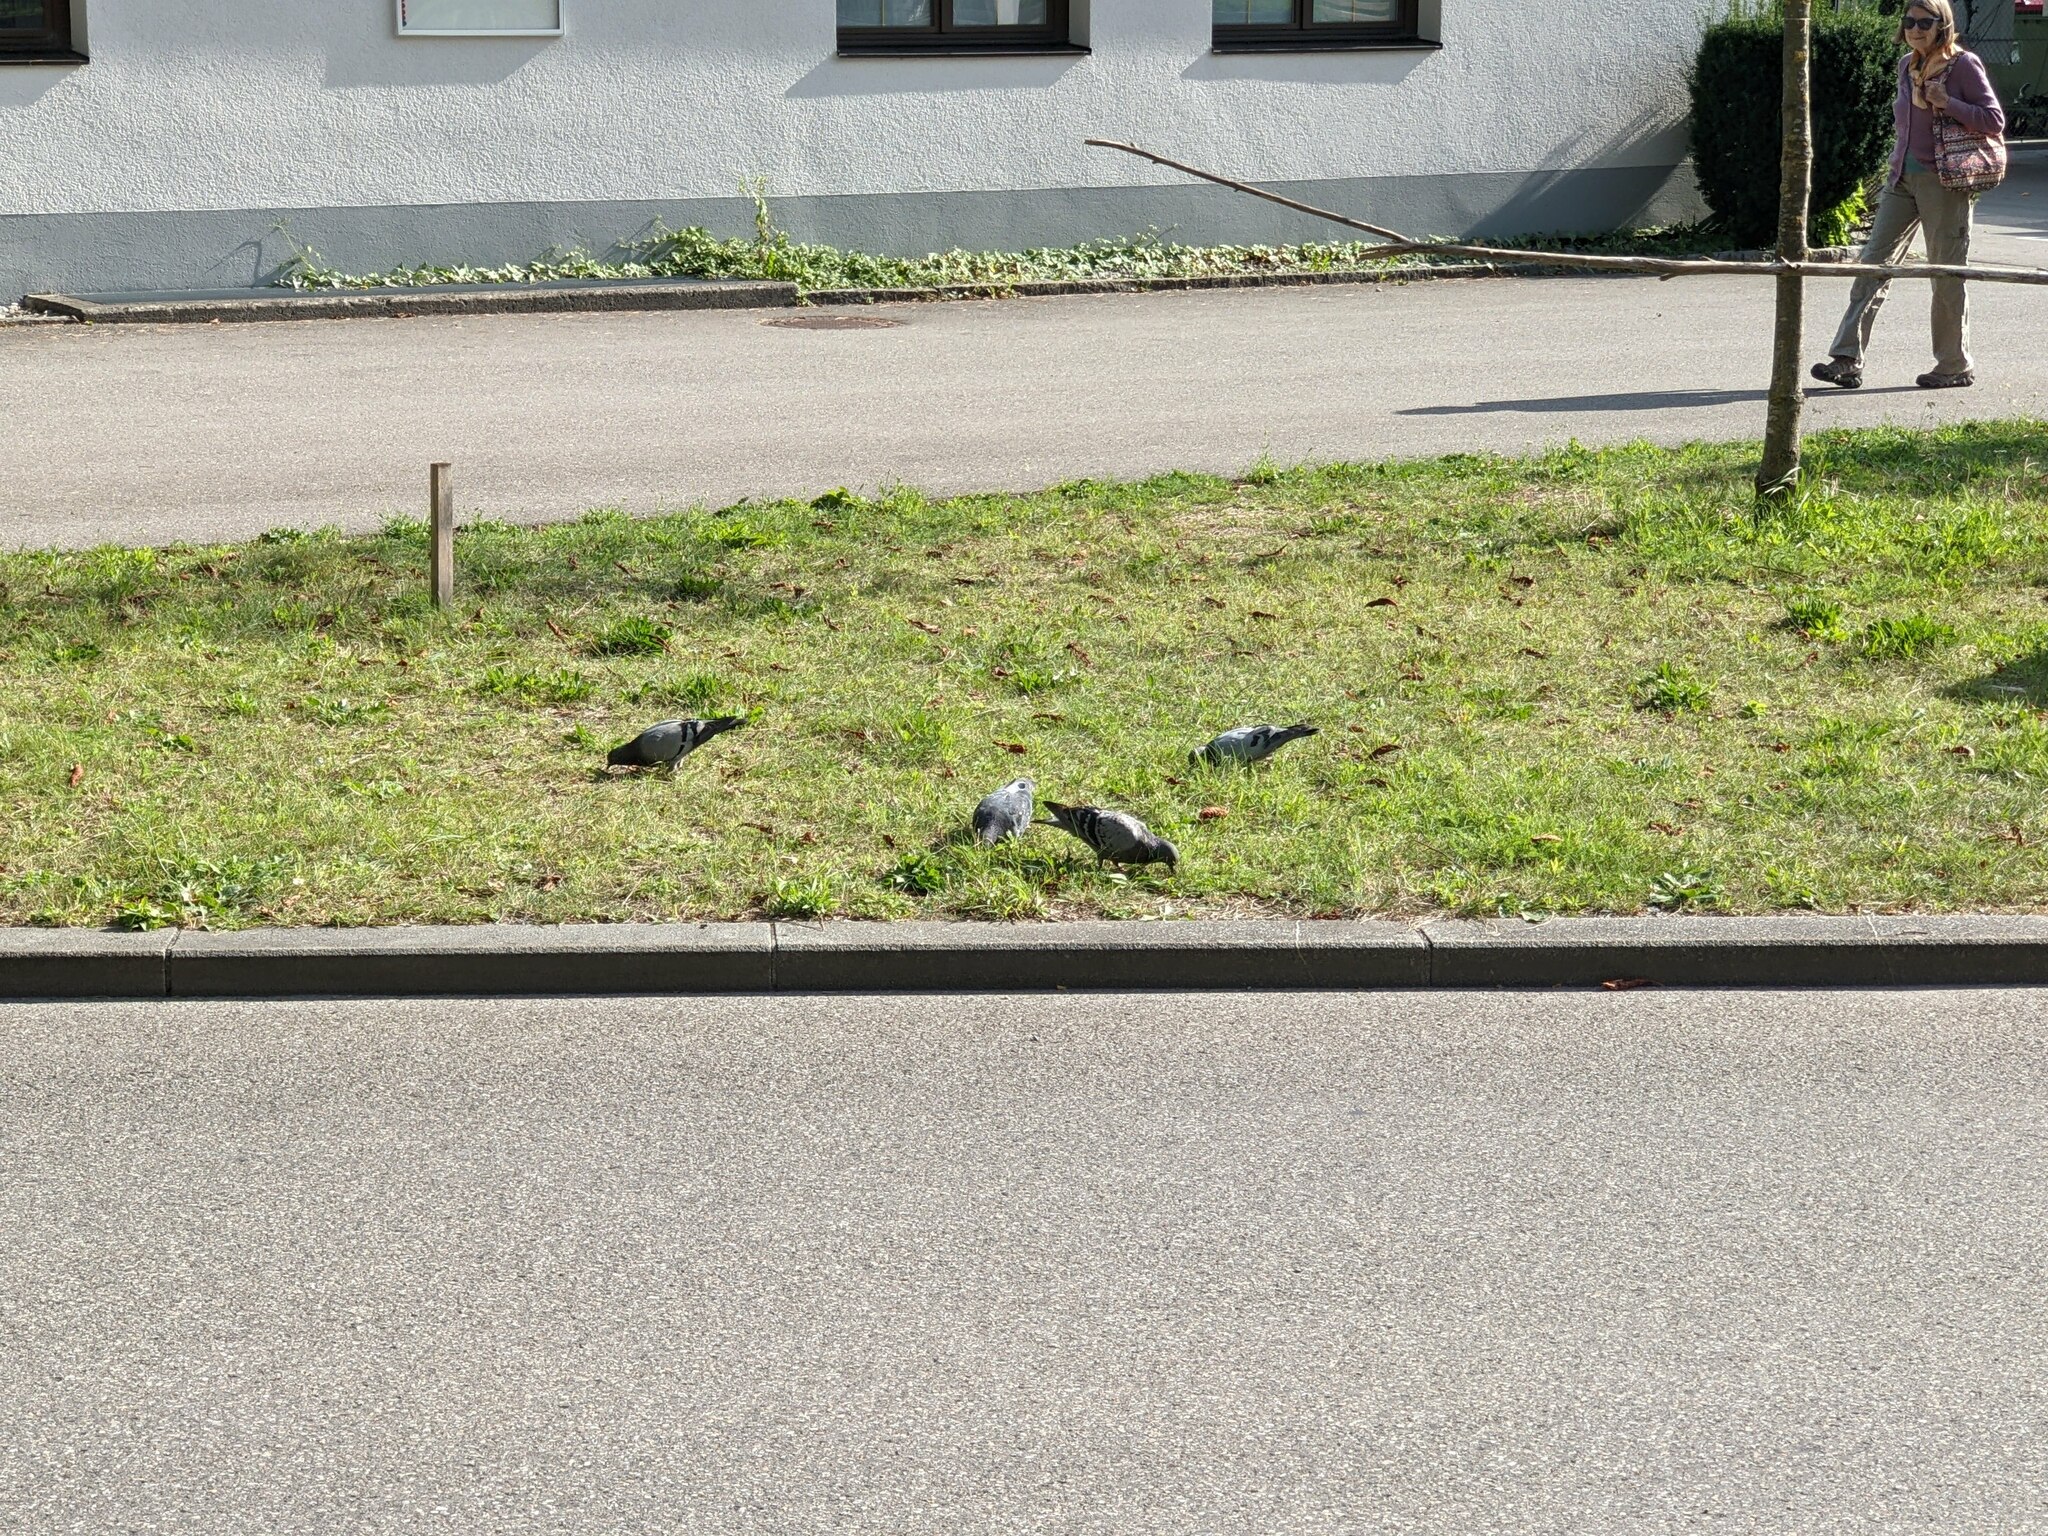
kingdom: Animalia
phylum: Chordata
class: Aves
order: Columbiformes
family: Columbidae
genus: Columba
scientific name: Columba livia
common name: Rock pigeon
